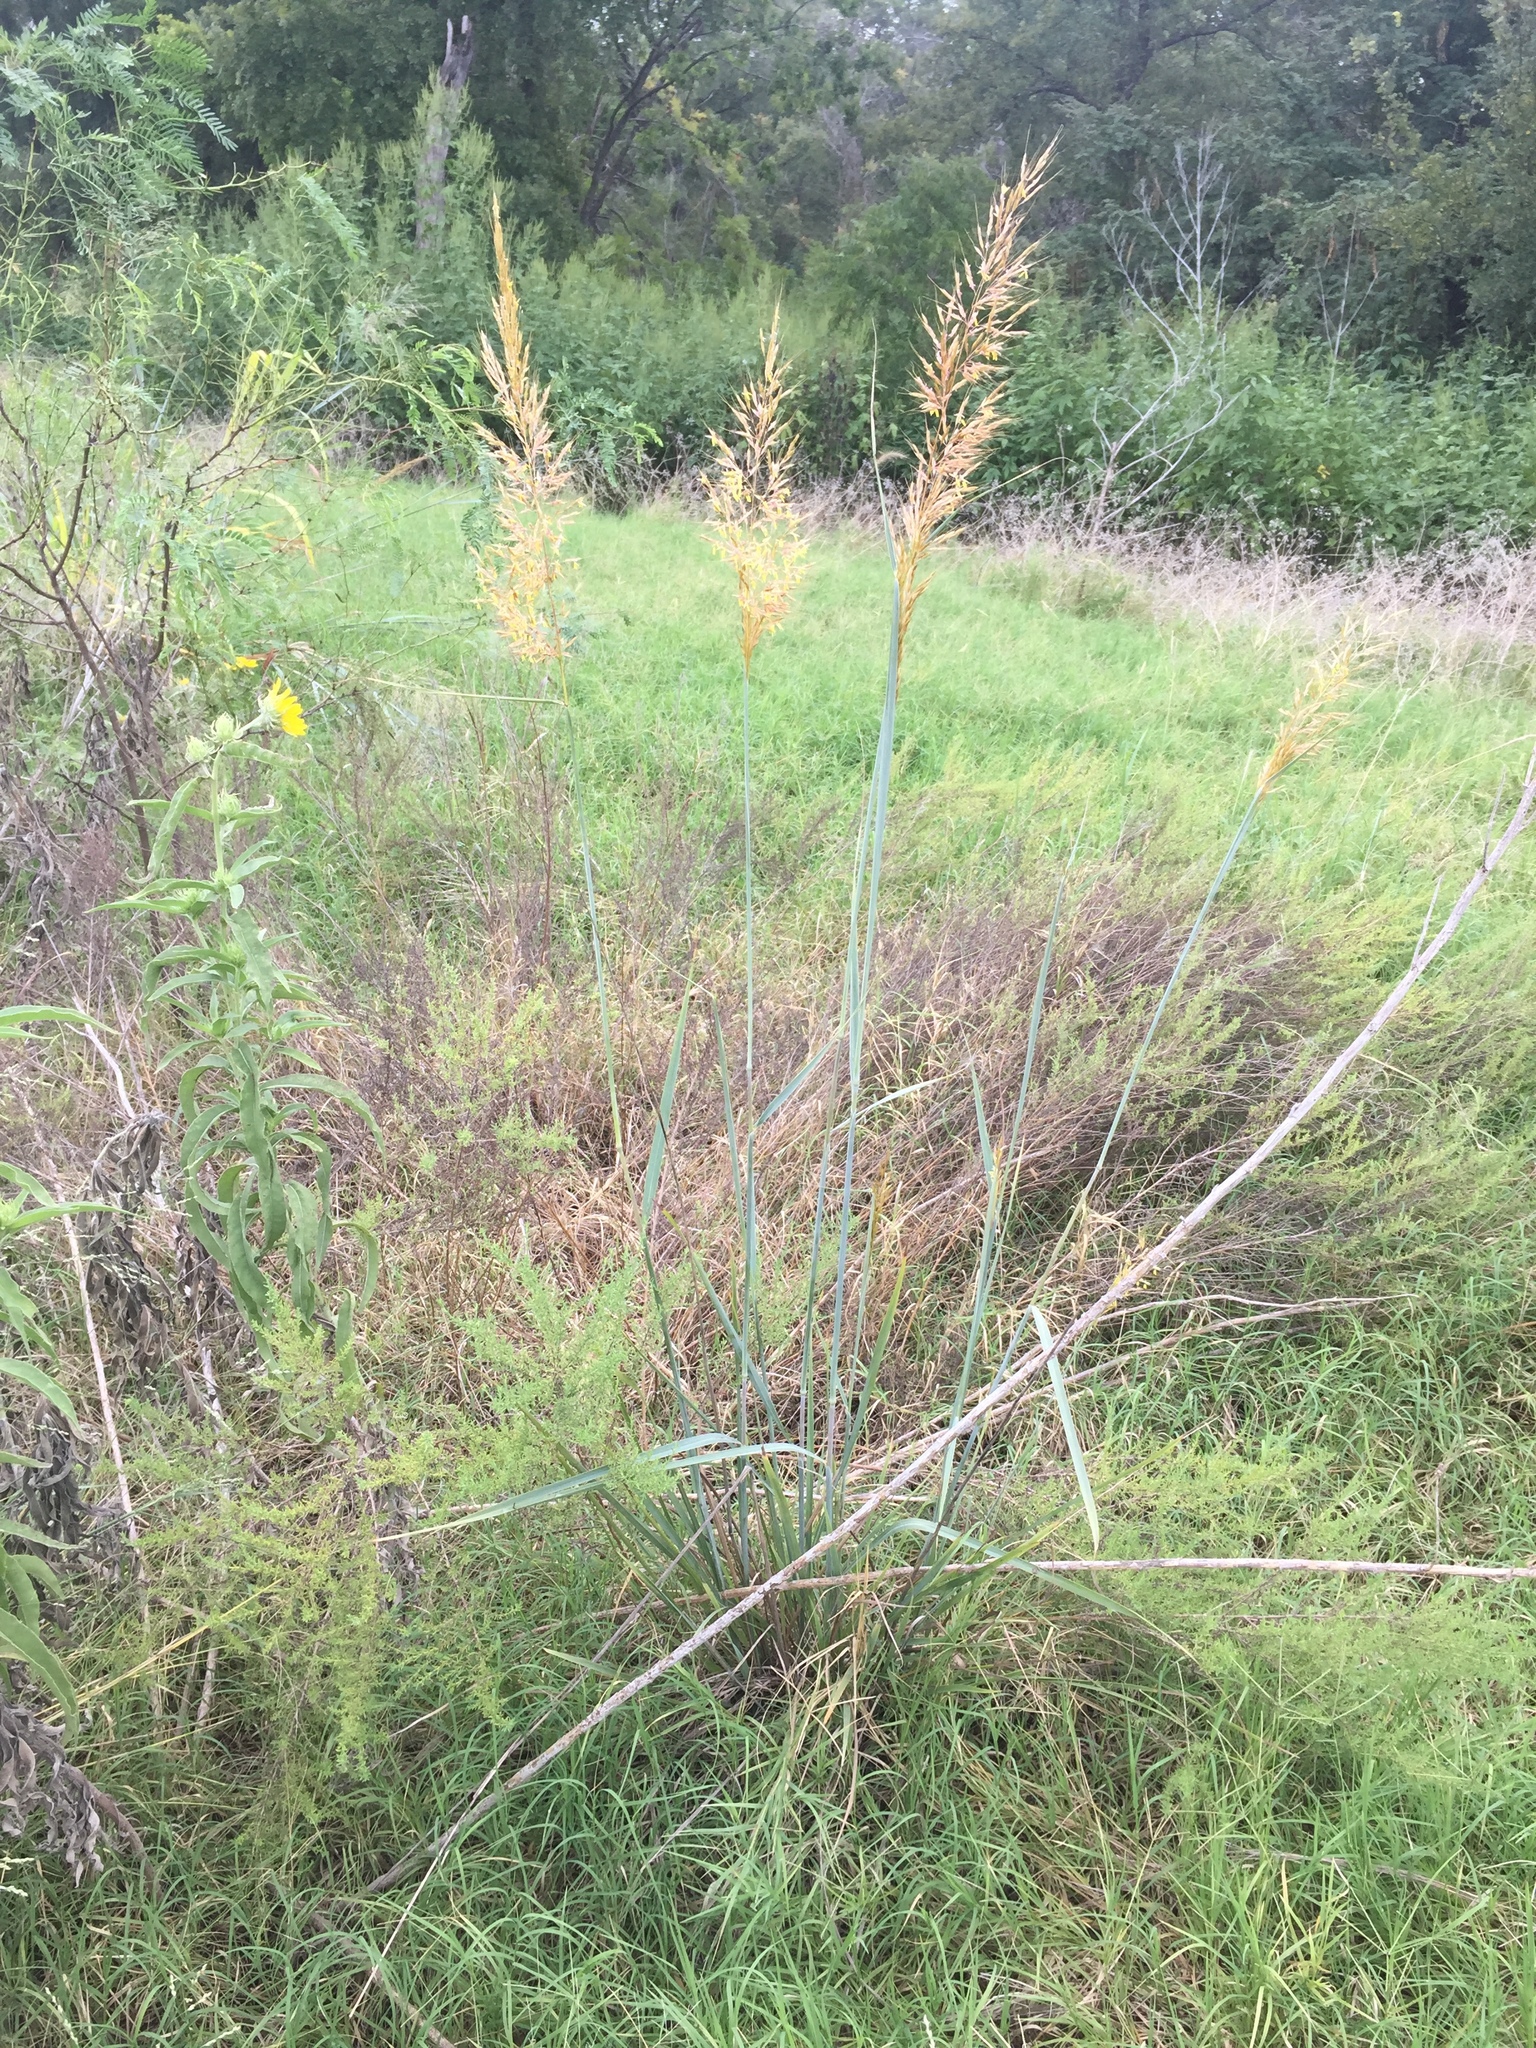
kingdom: Plantae
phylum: Tracheophyta
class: Liliopsida
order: Poales
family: Poaceae
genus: Sorghastrum
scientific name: Sorghastrum nutans
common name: Indian grass
